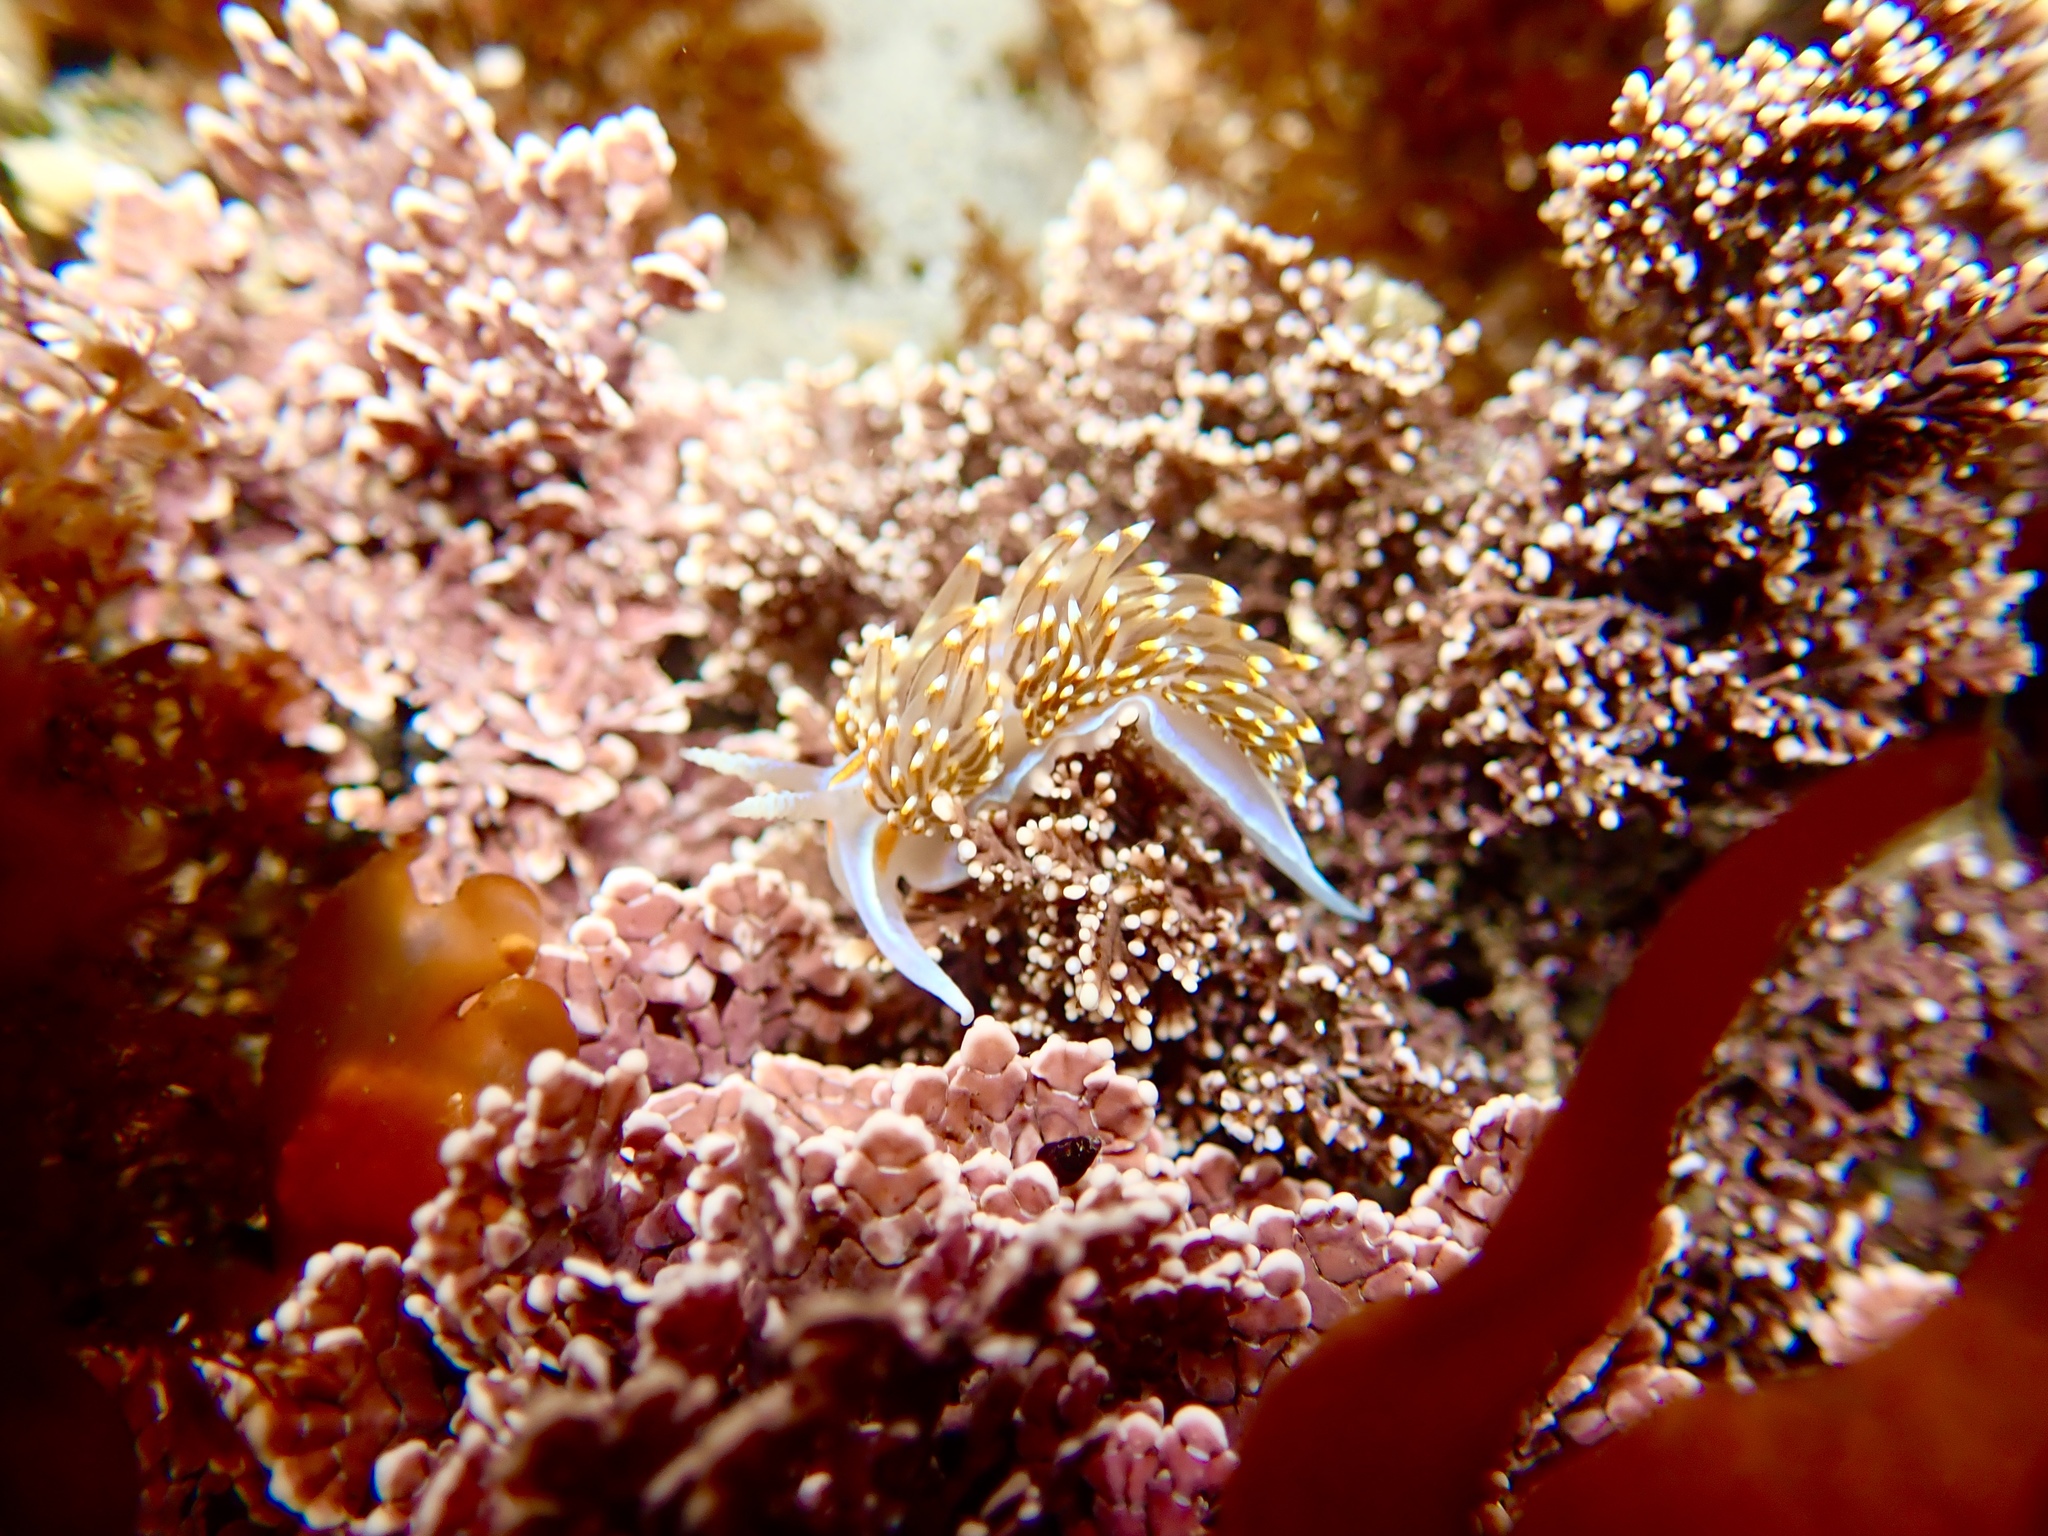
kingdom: Animalia
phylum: Mollusca
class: Gastropoda
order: Nudibranchia
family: Myrrhinidae
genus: Hermissenda
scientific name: Hermissenda opalescens
